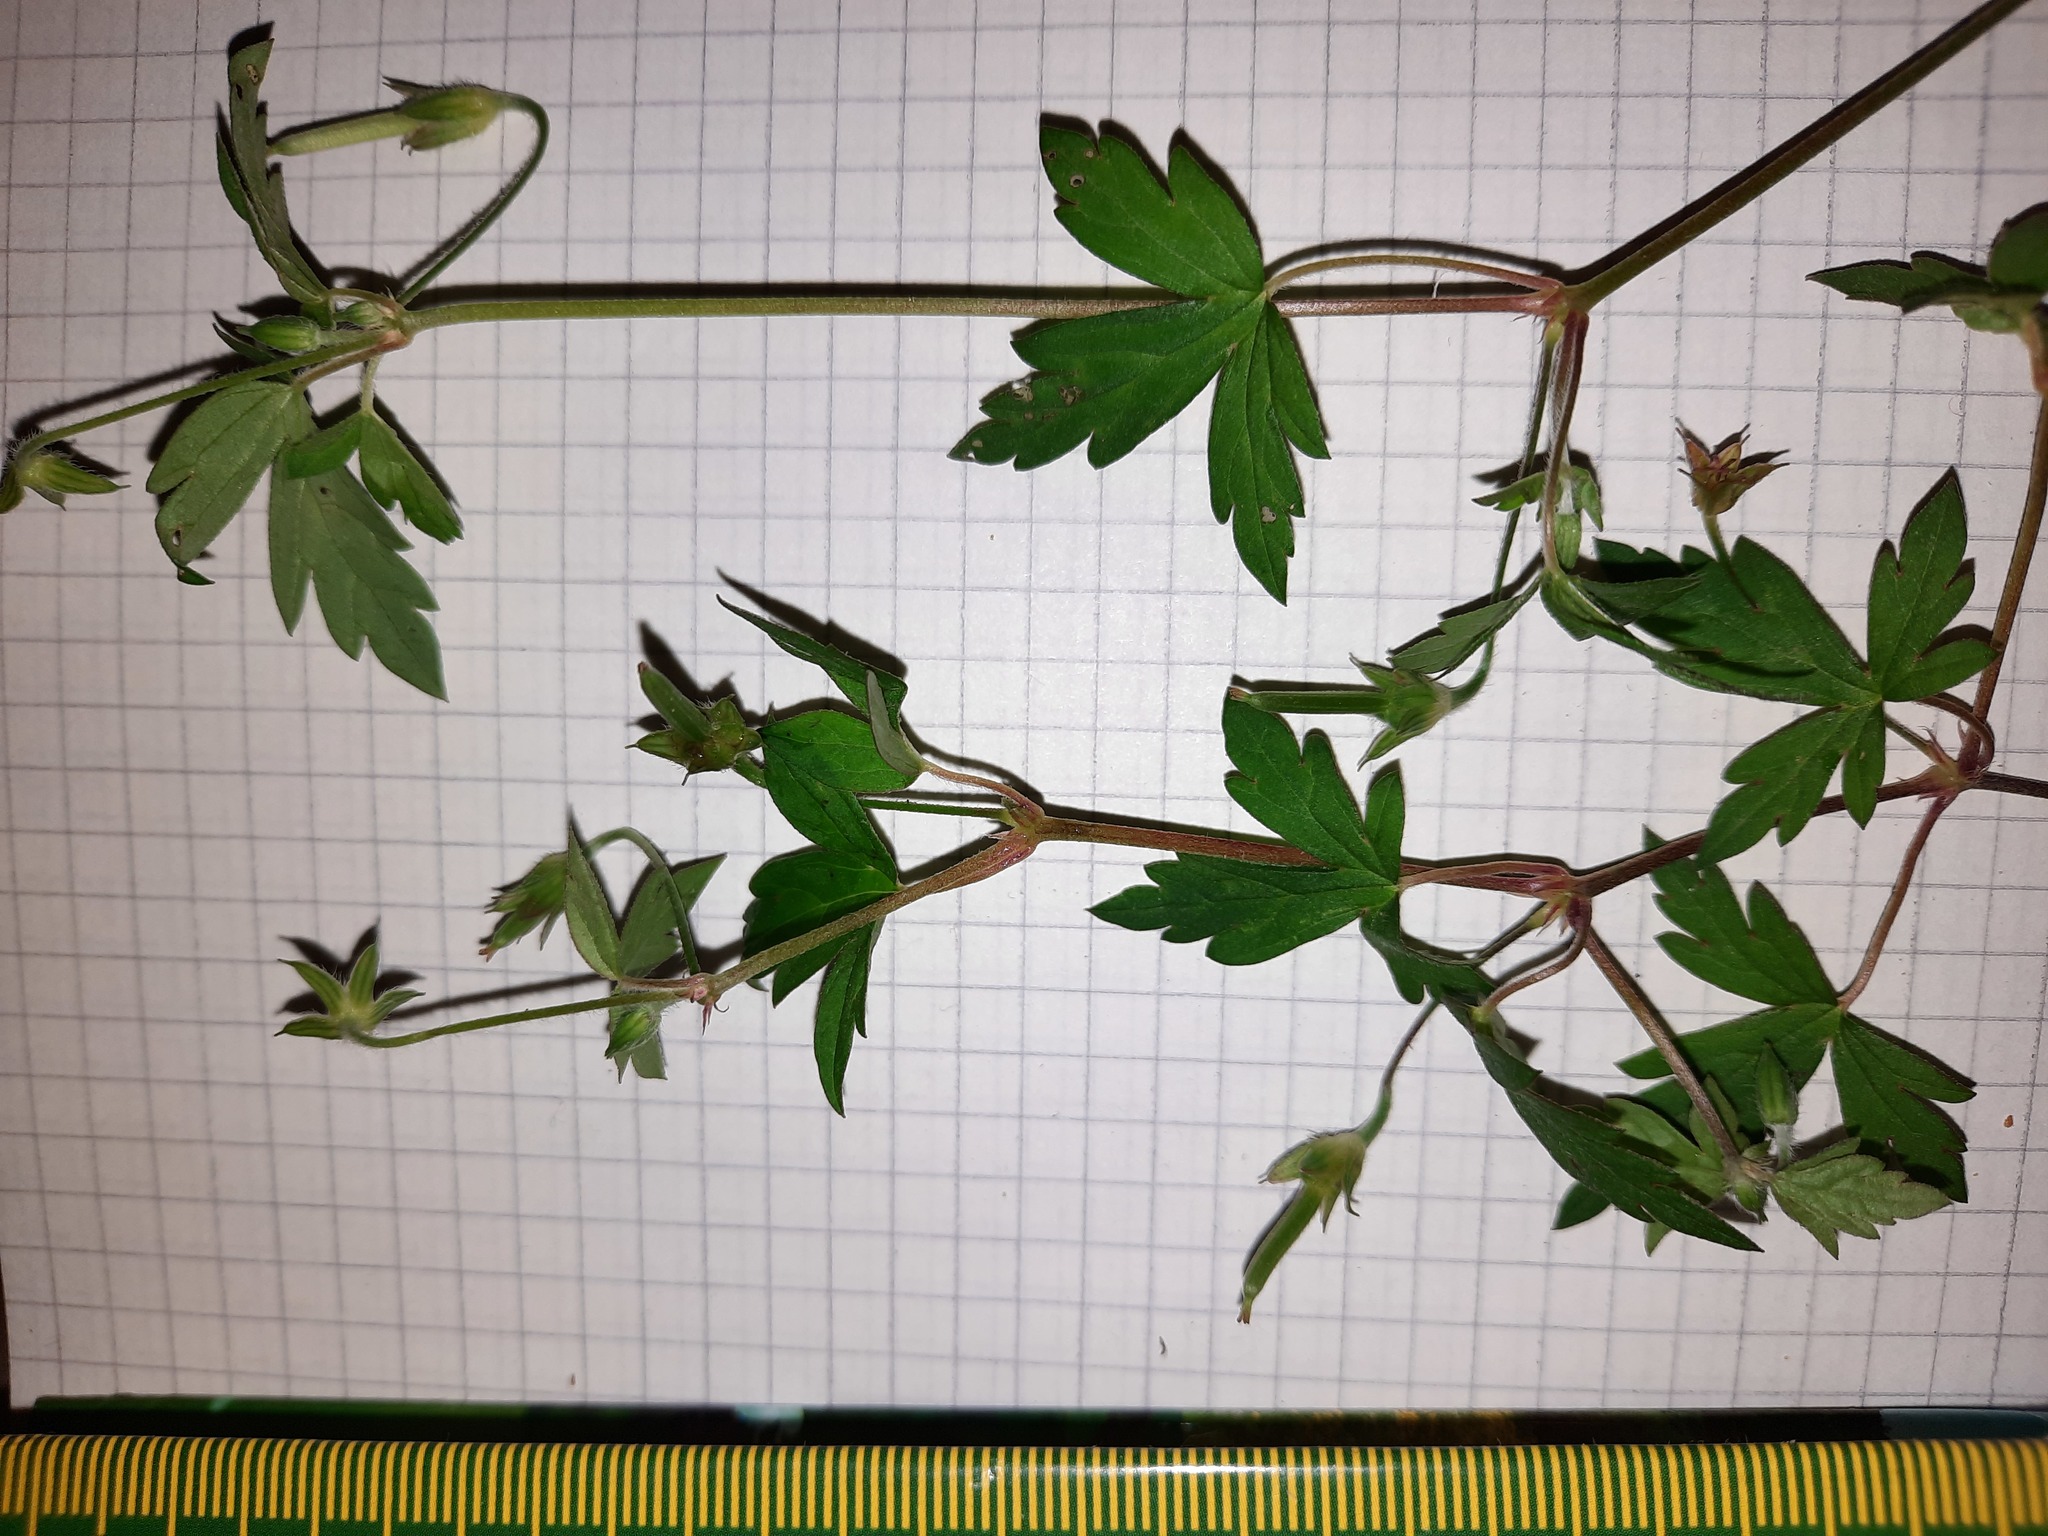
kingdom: Plantae
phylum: Tracheophyta
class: Magnoliopsida
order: Geraniales
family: Geraniaceae
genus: Geranium
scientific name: Geranium sibiricum
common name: Siberian crane's-bill
